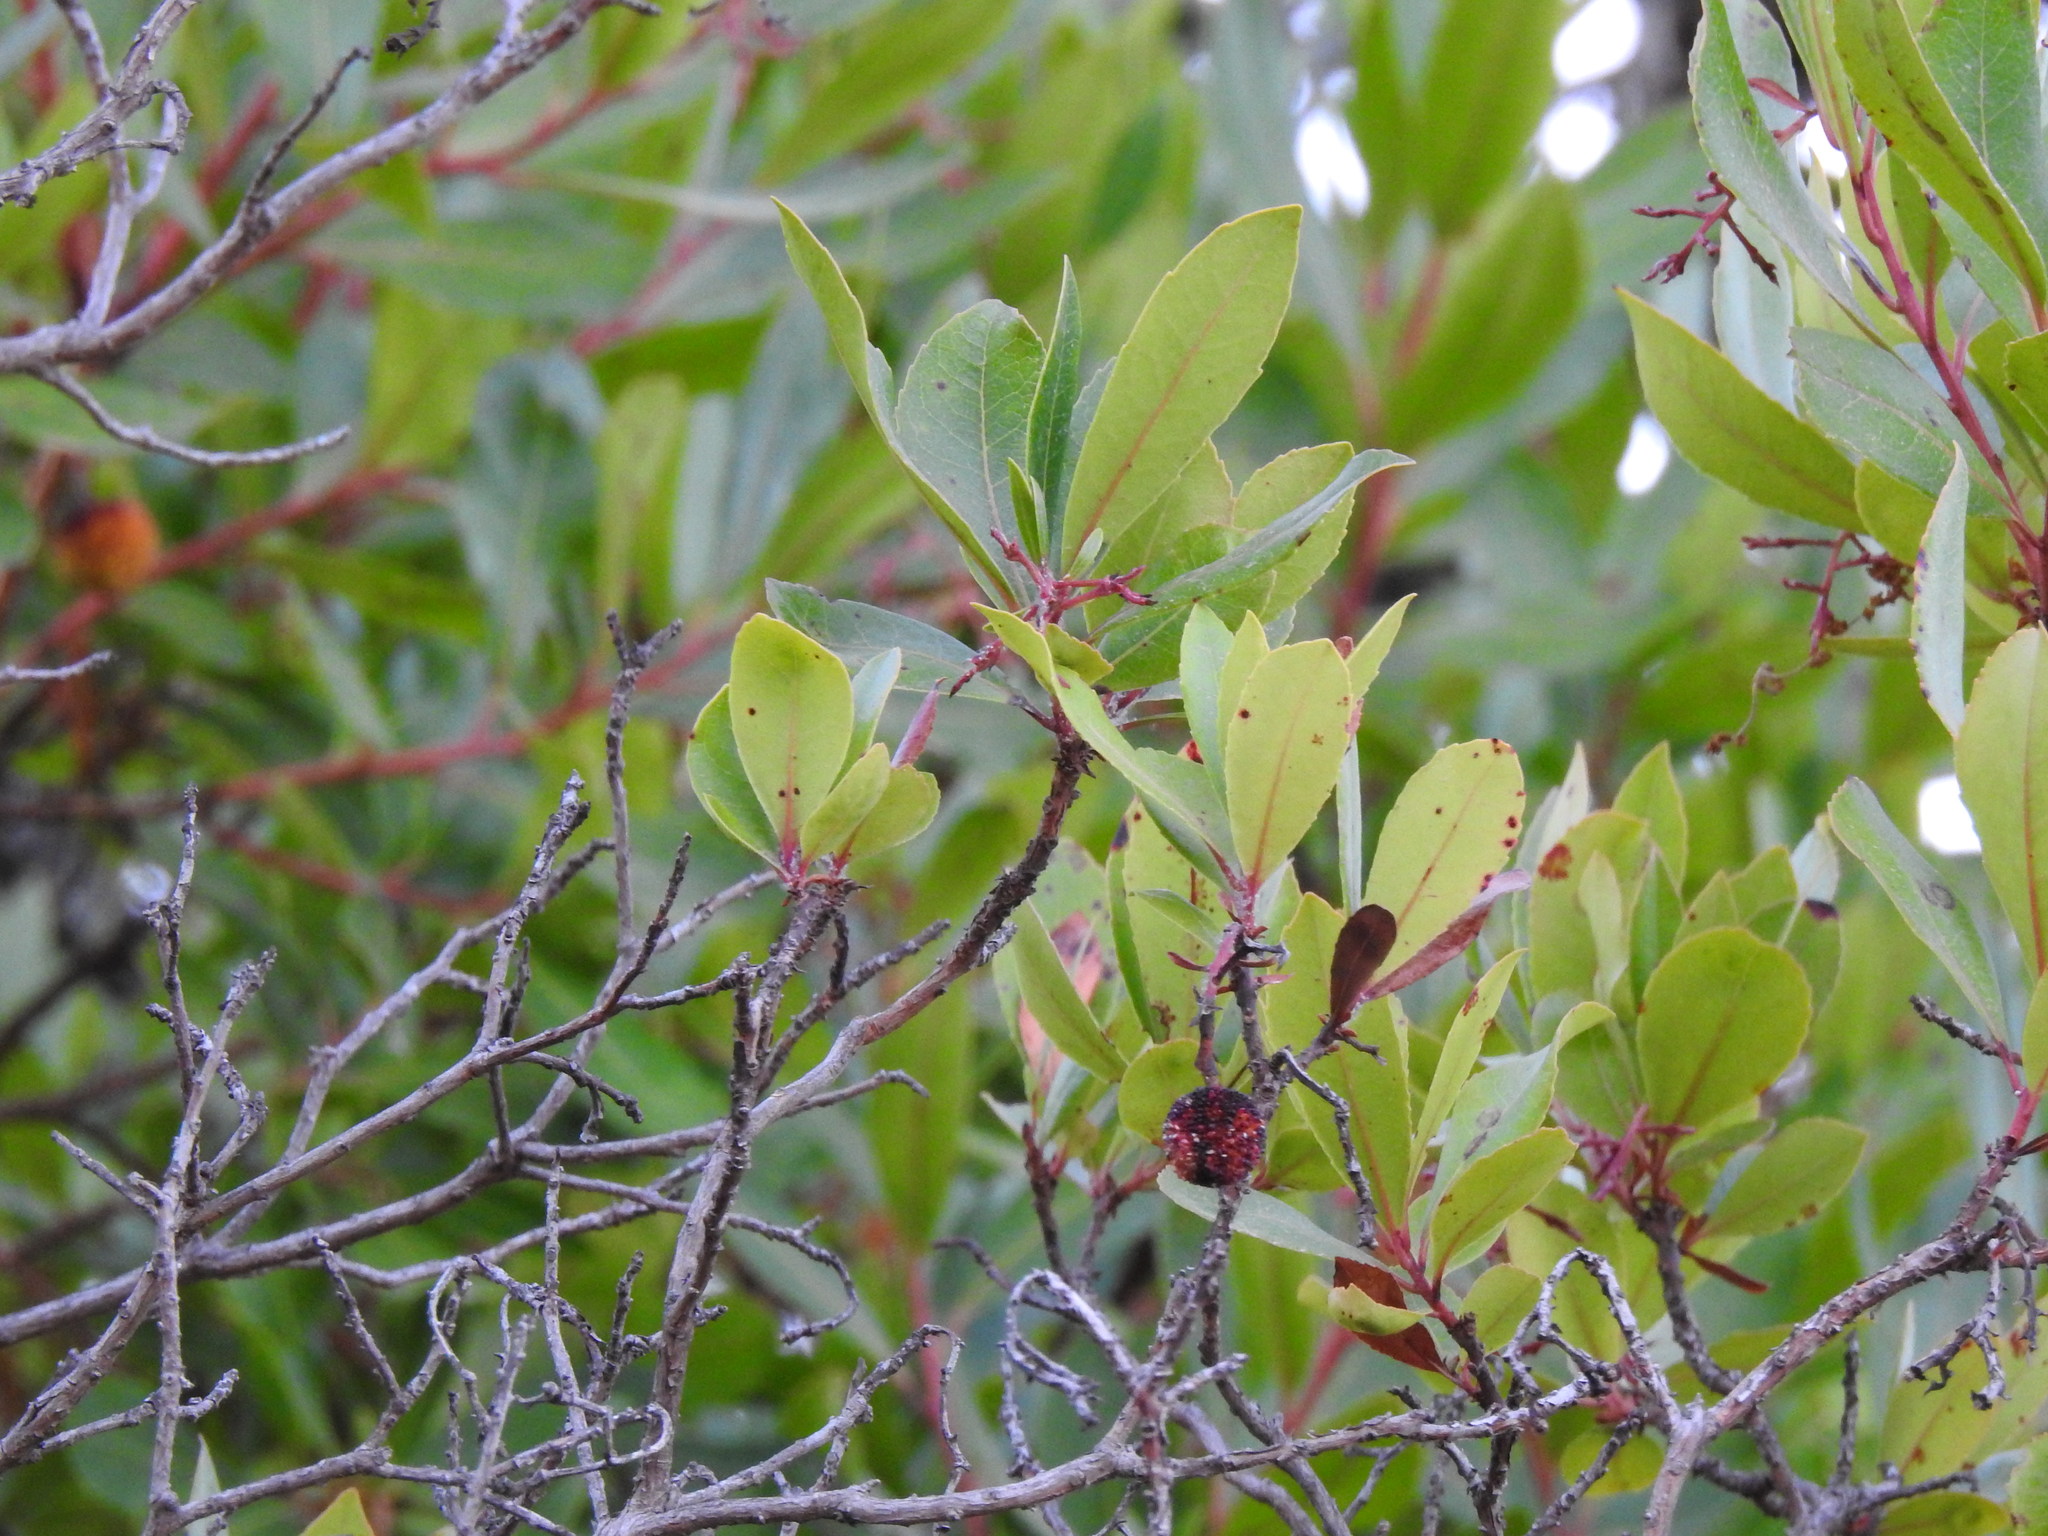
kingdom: Plantae
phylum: Tracheophyta
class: Magnoliopsida
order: Ericales
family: Ericaceae
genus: Arbutus
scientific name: Arbutus unedo
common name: Strawberry-tree
